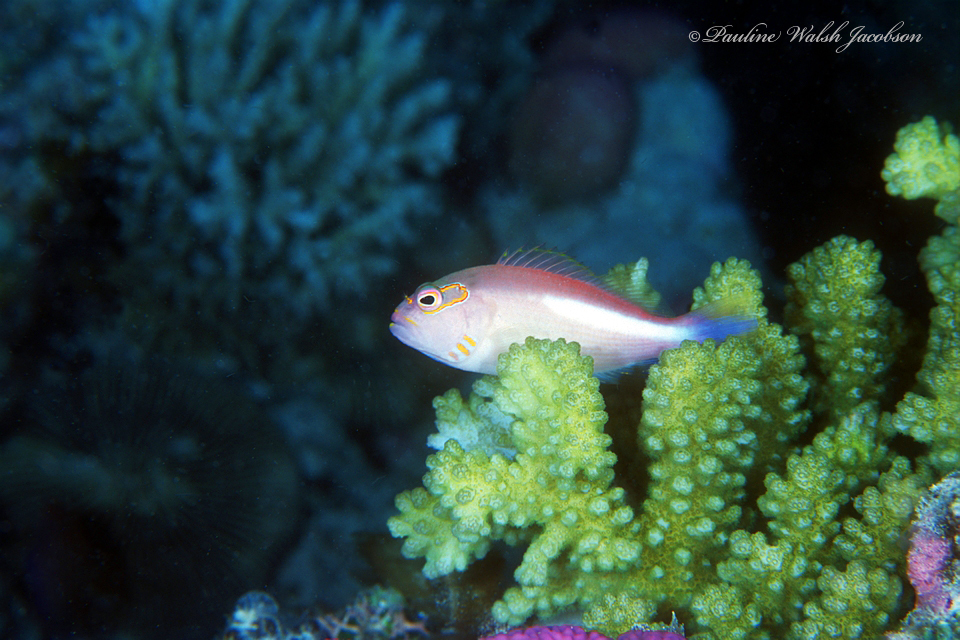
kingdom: Animalia
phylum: Chordata
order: Perciformes
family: Cirrhitidae
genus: Paracirrhites
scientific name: Paracirrhites arcatus
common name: Arc-eye hawkfish
